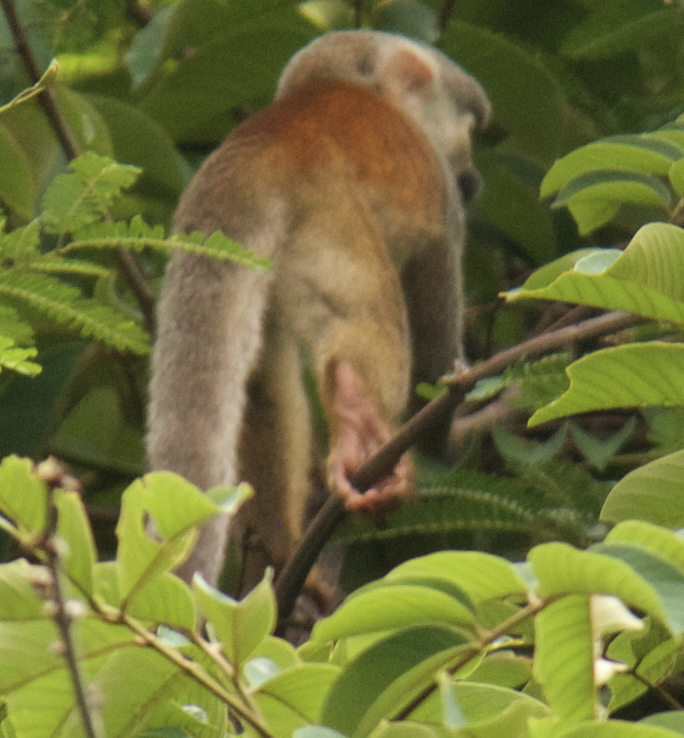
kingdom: Animalia
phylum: Chordata
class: Mammalia
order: Primates
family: Cebidae
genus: Saimiri
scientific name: Saimiri cassiquiarensis
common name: Humboldt’s squirrel monkey
